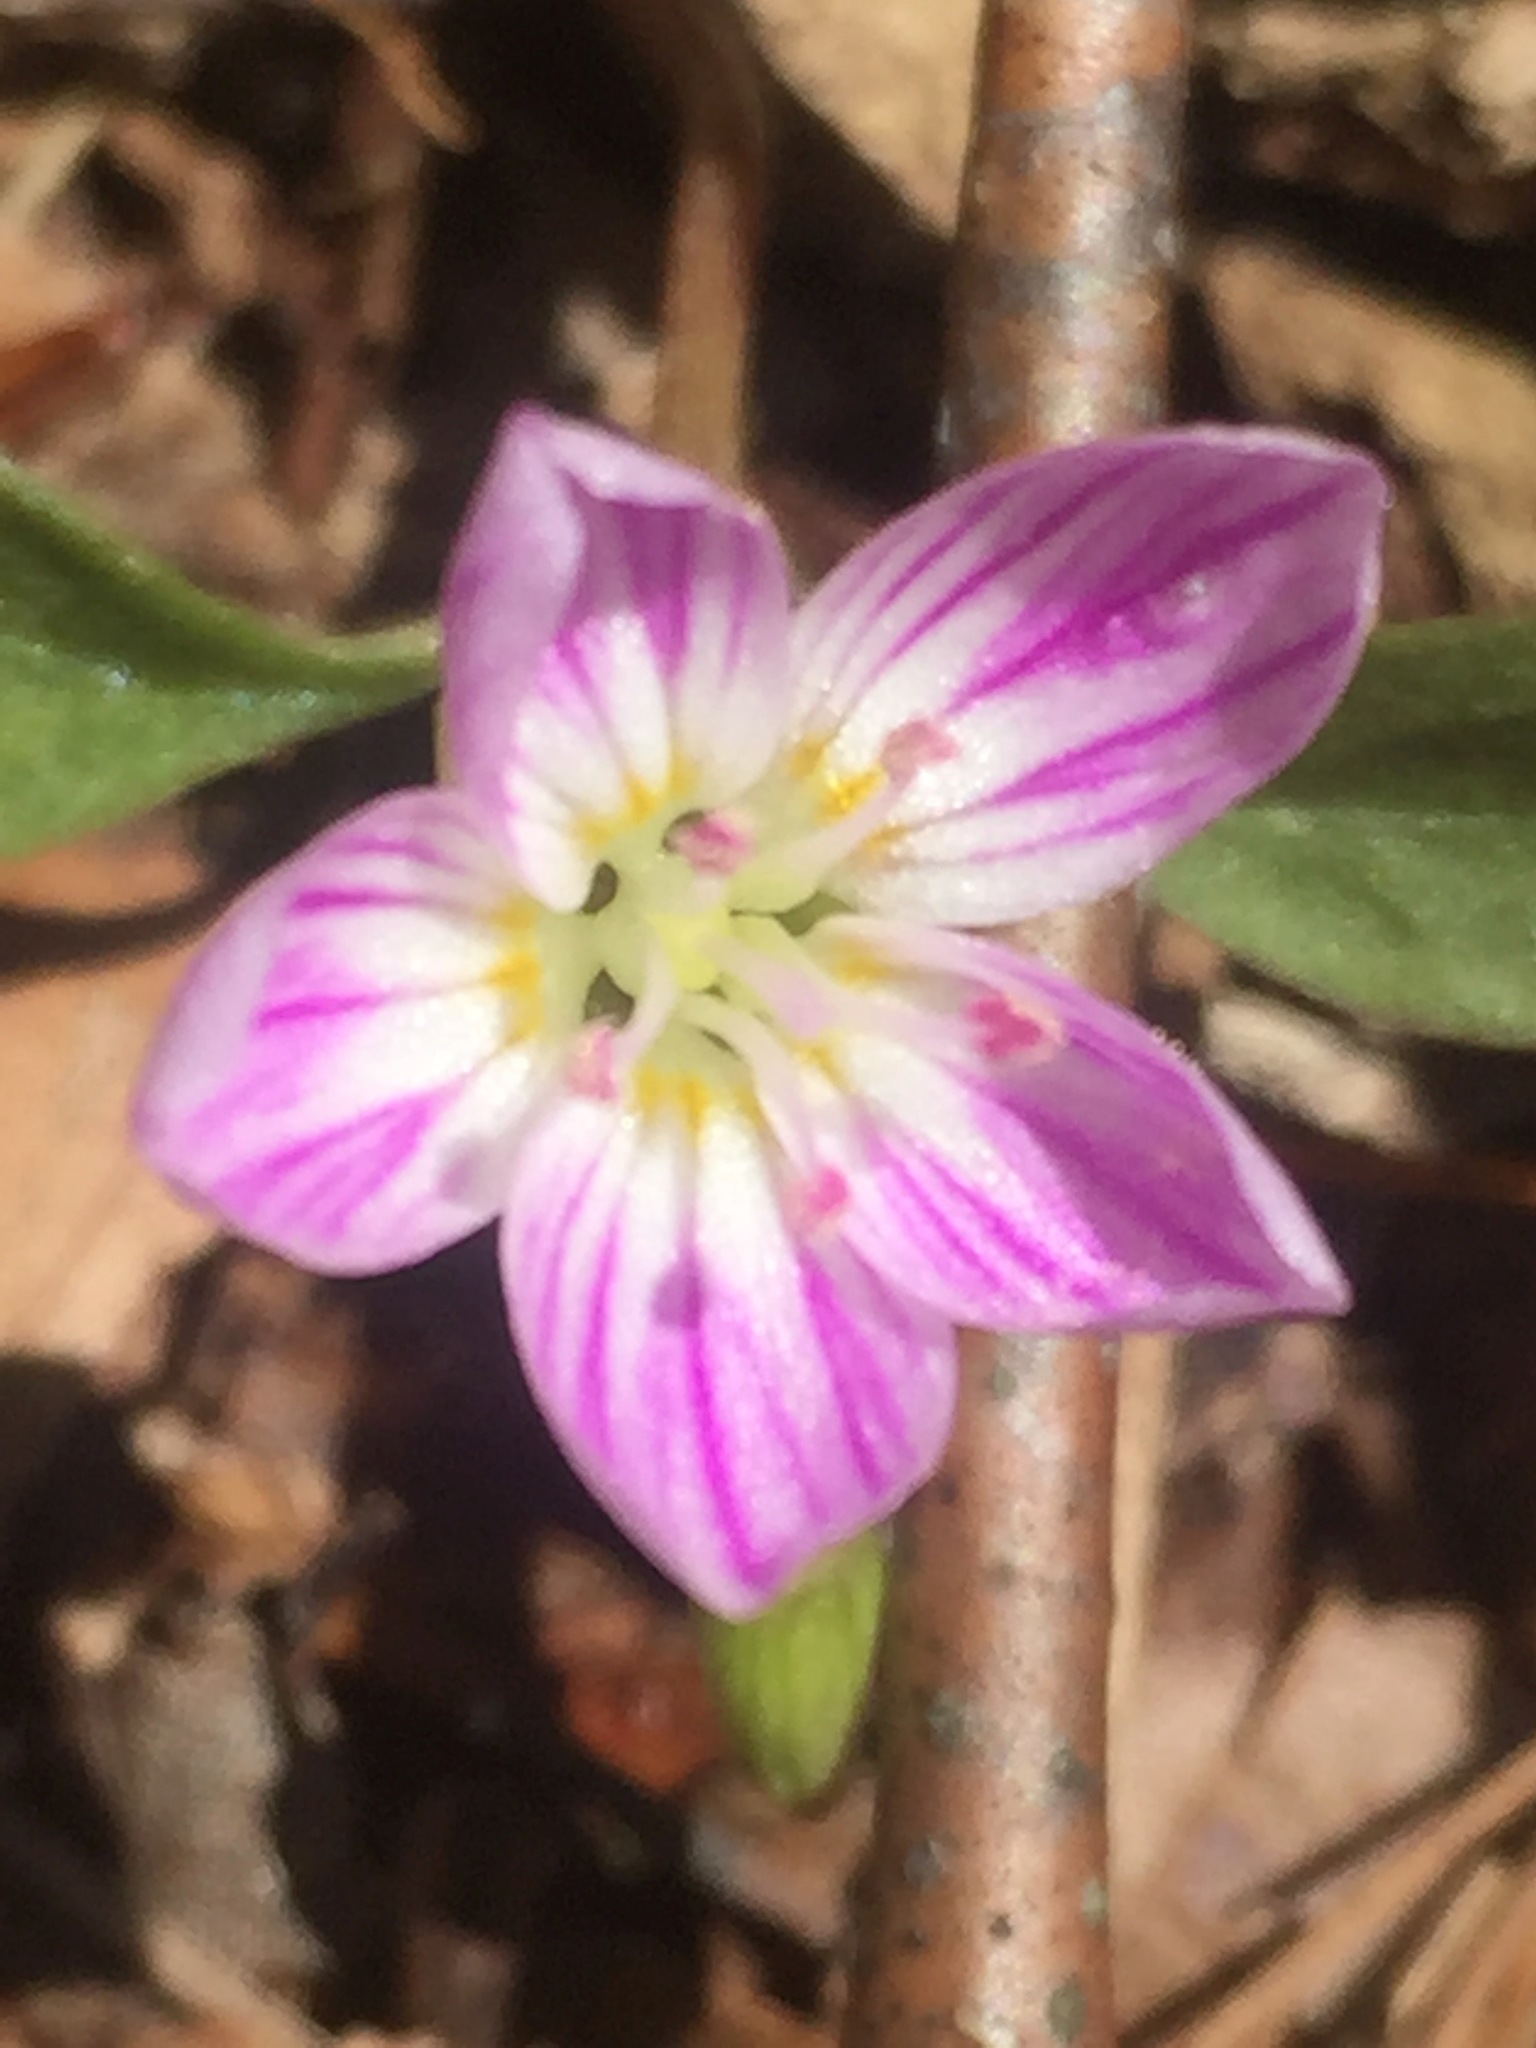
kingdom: Plantae
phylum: Tracheophyta
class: Magnoliopsida
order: Caryophyllales
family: Montiaceae
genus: Claytonia
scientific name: Claytonia caroliniana
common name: Carolina spring beauty
